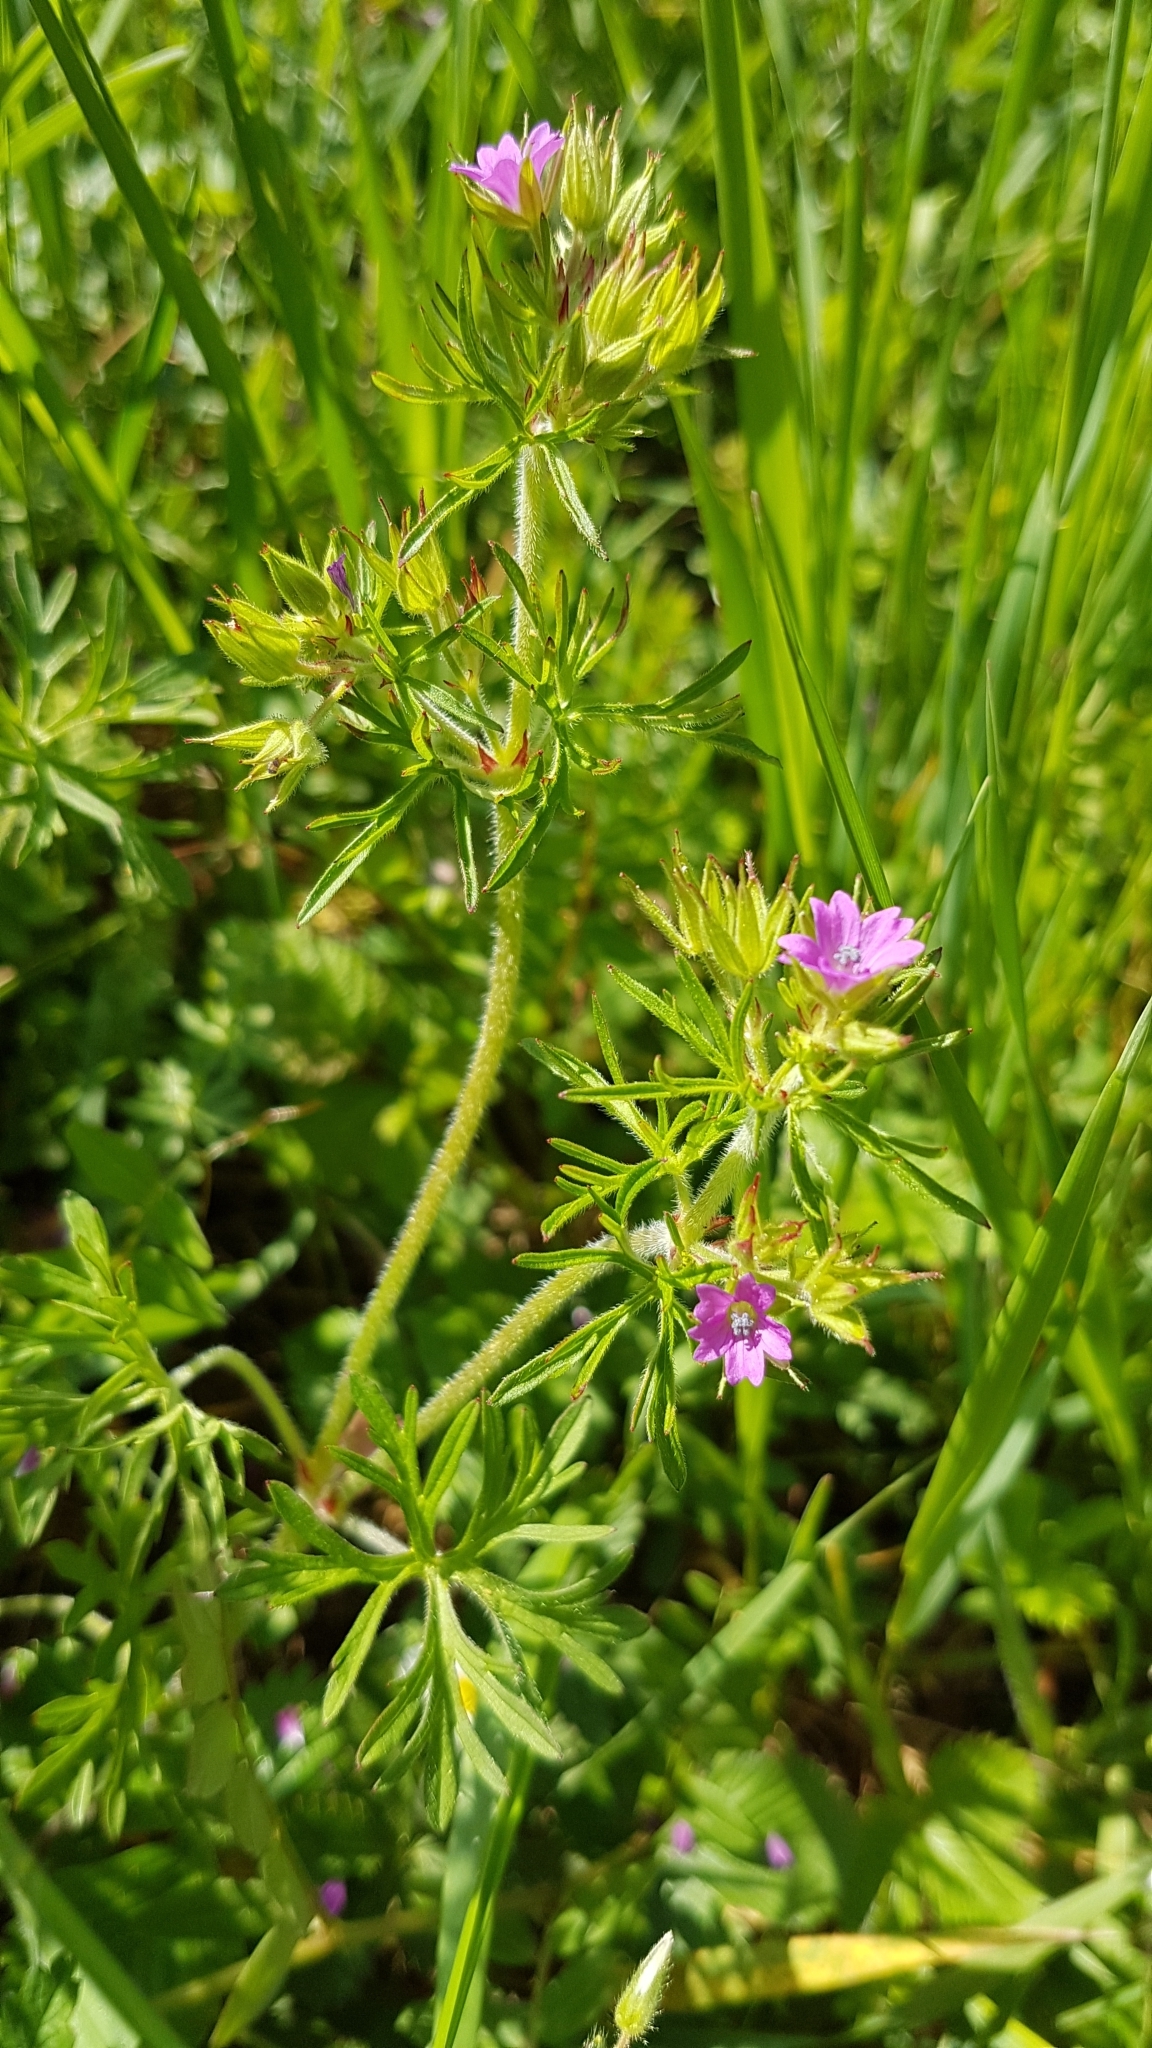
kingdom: Plantae
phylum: Tracheophyta
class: Magnoliopsida
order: Geraniales
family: Geraniaceae
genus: Geranium
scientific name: Geranium dissectum
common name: Cut-leaved crane's-bill
